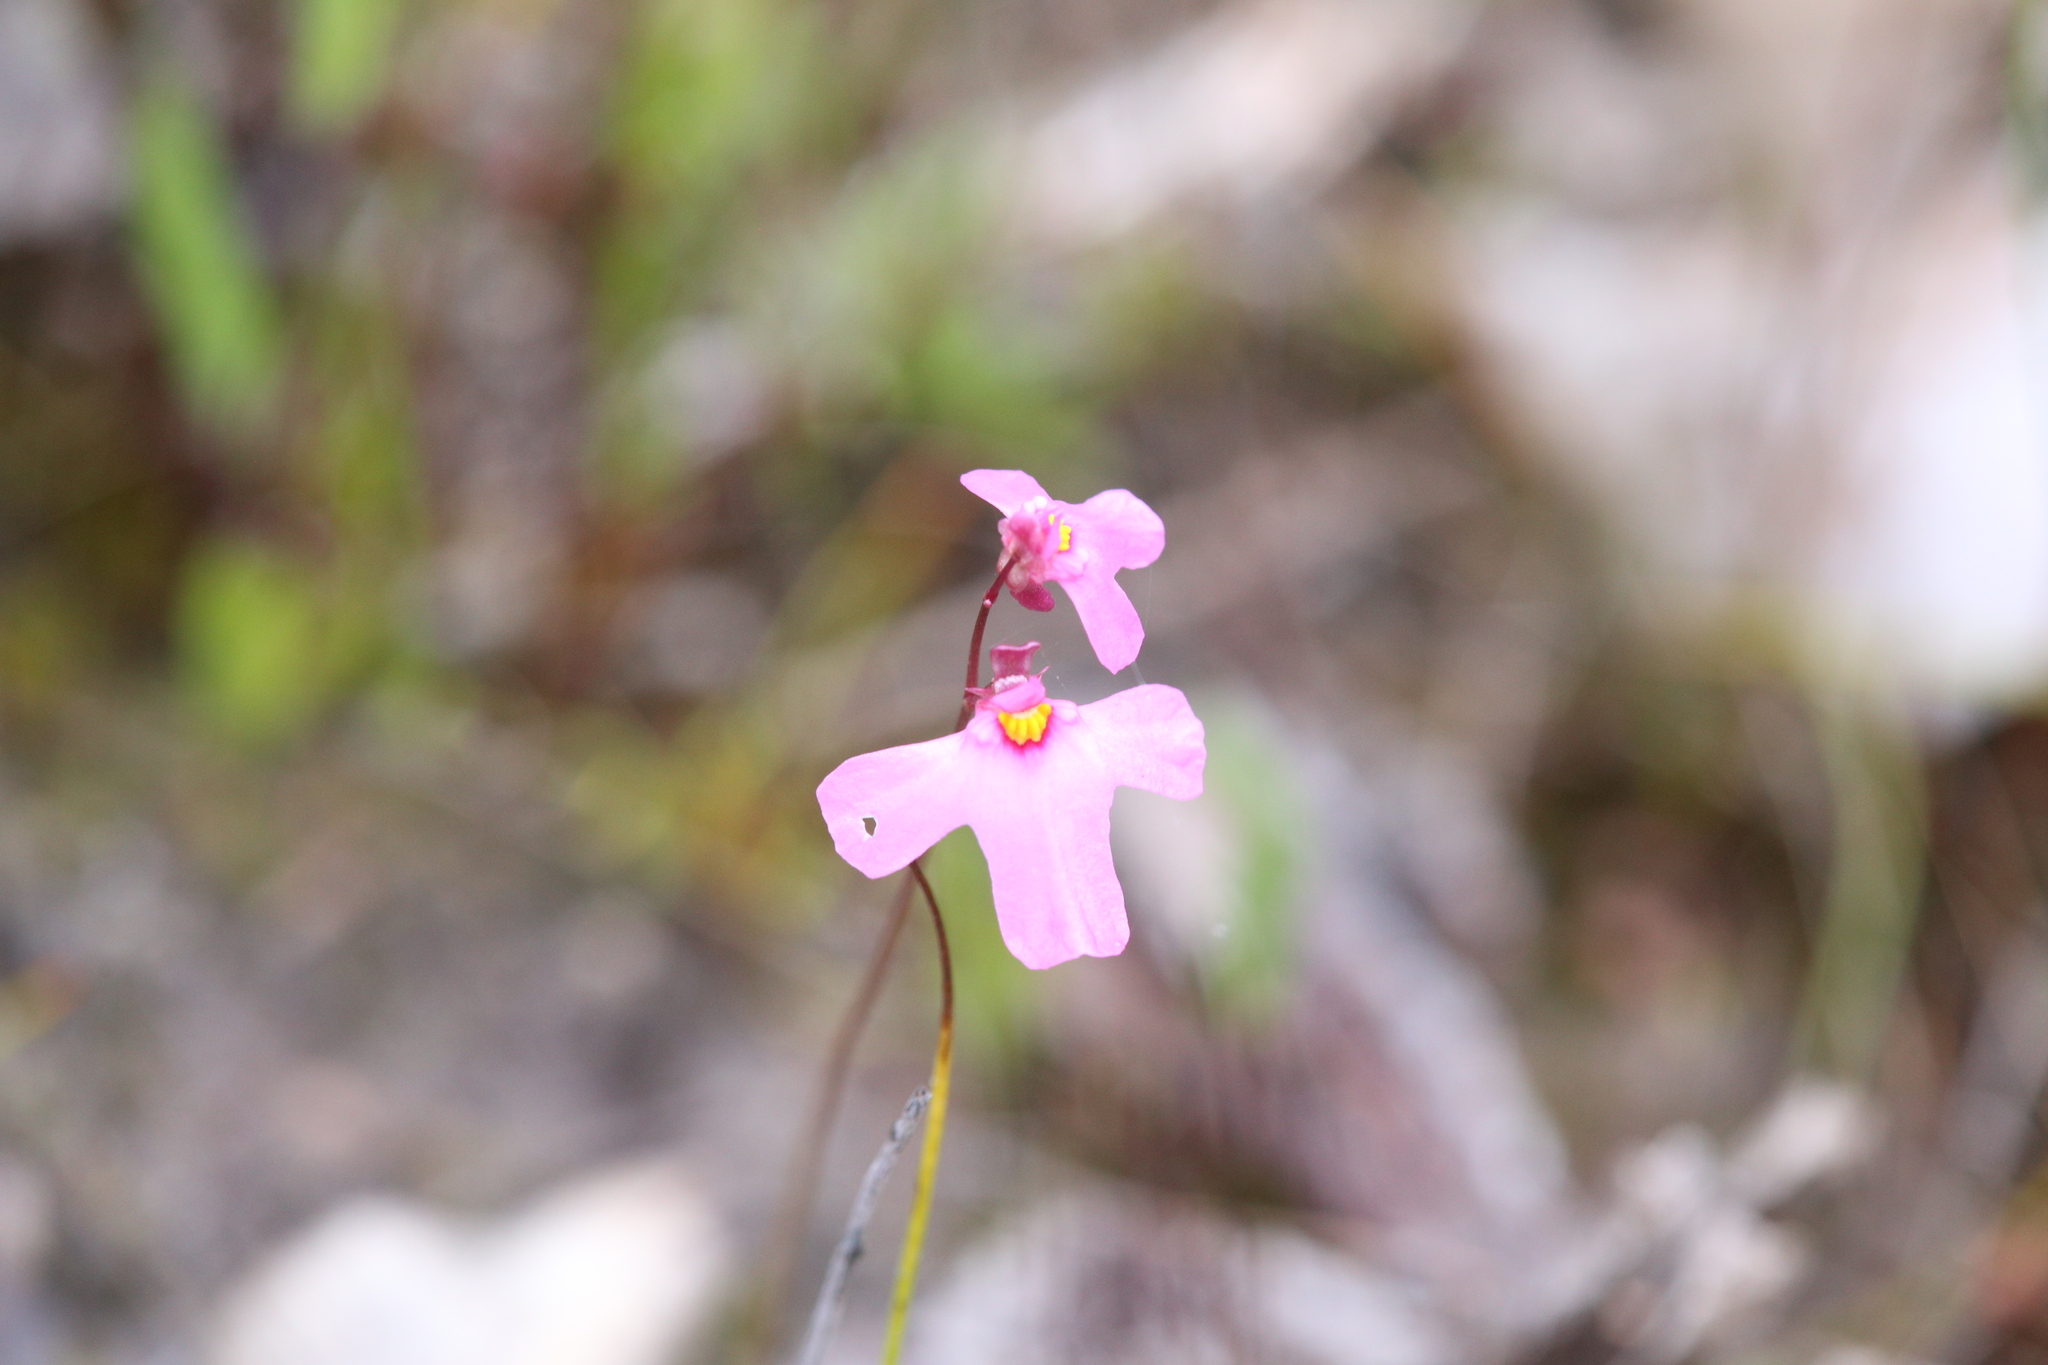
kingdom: Plantae
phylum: Tracheophyta
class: Magnoliopsida
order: Lamiales
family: Lentibulariaceae
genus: Utricularia
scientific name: Utricularia multifida
